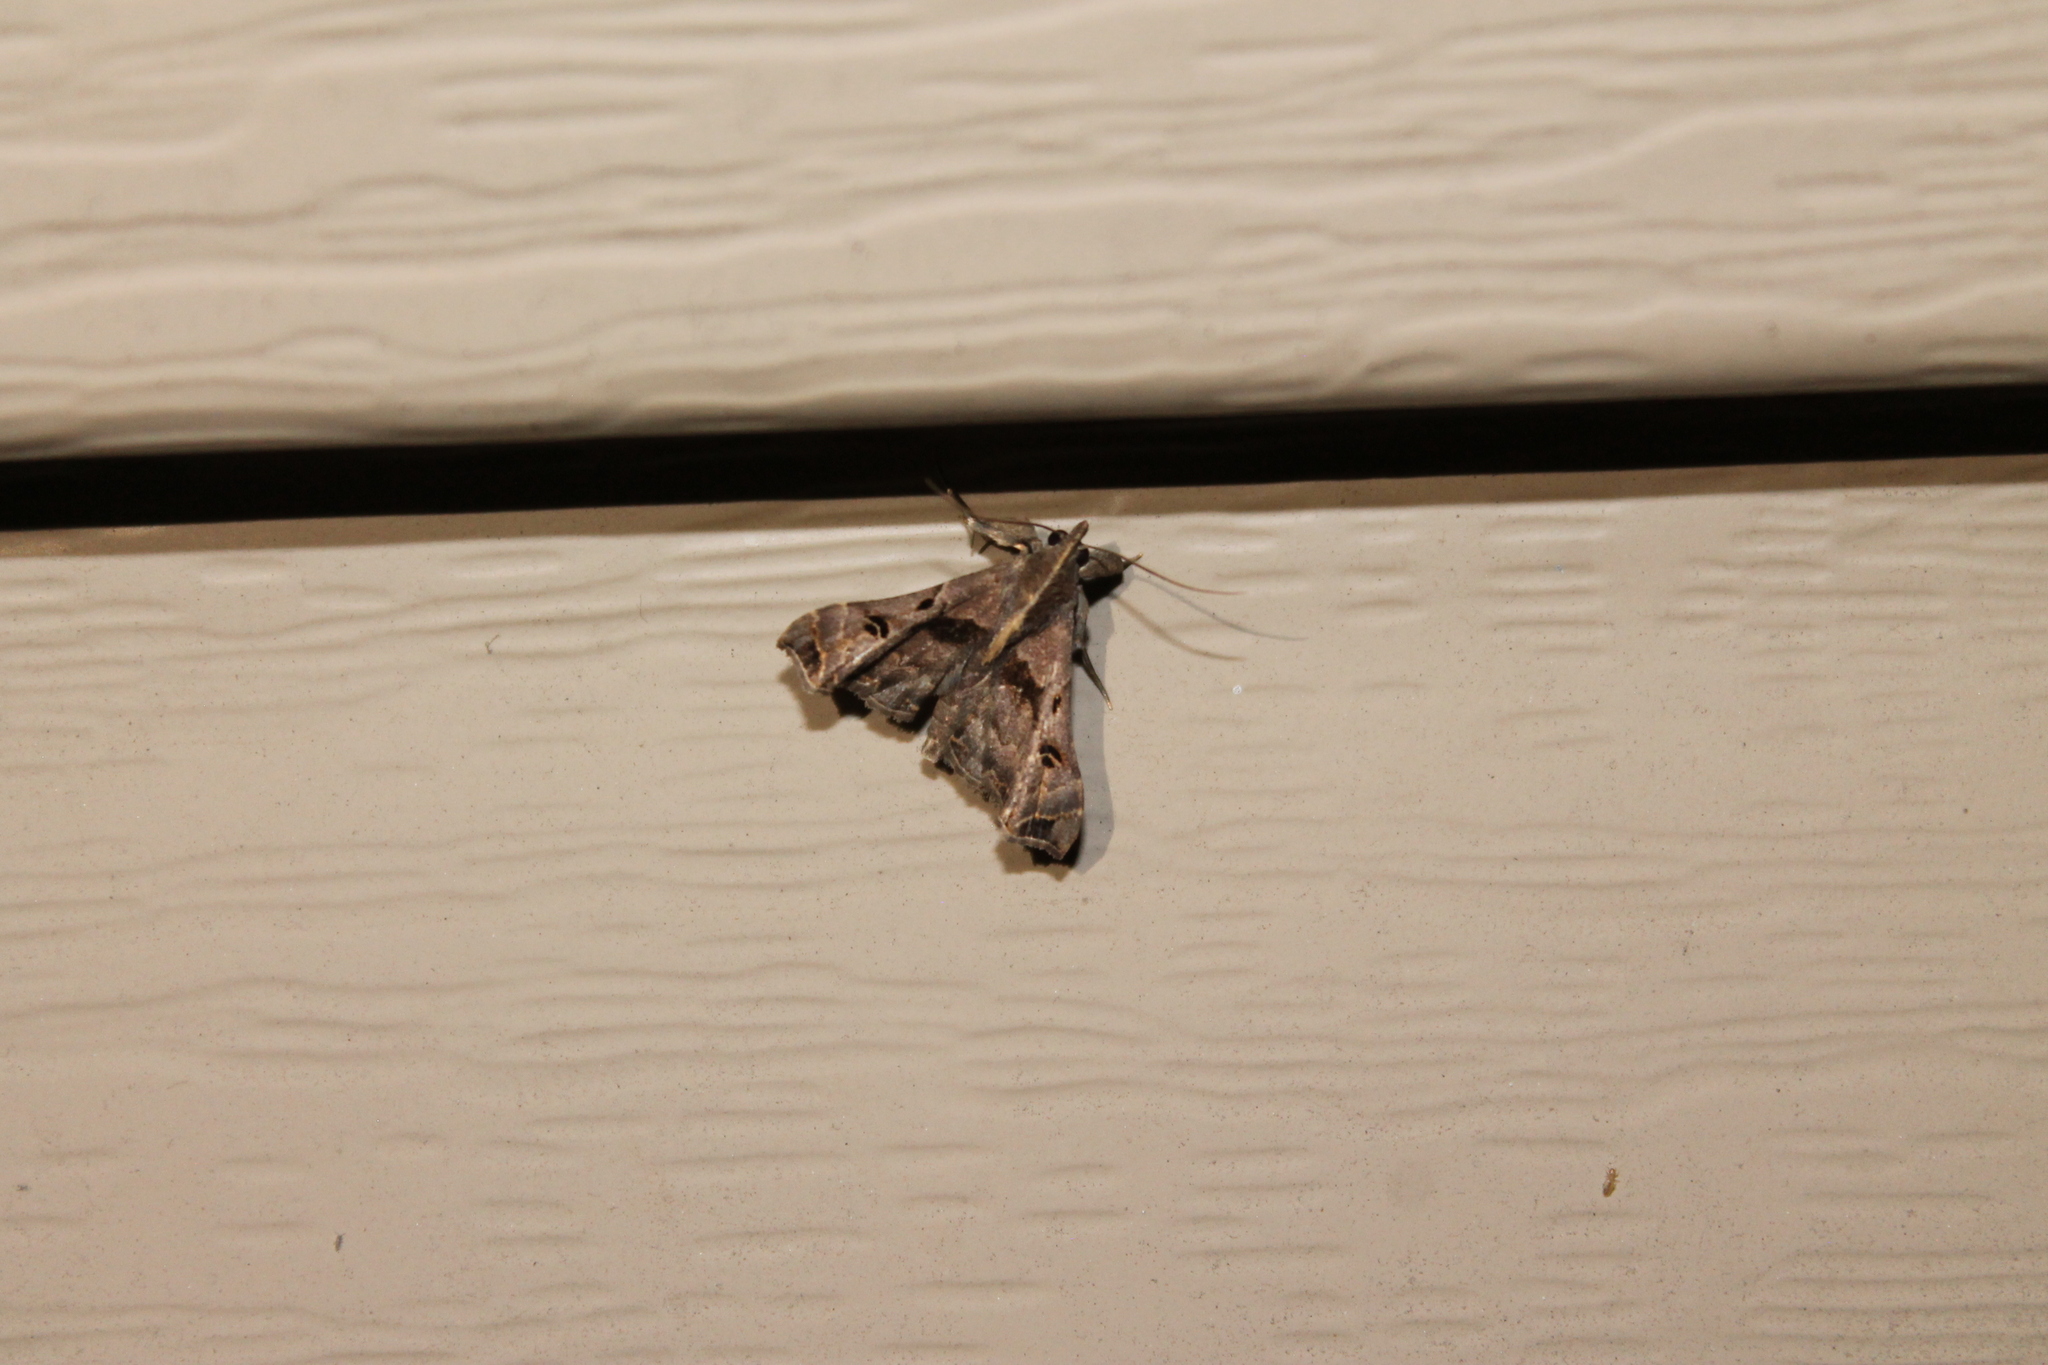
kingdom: Animalia
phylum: Arthropoda
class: Insecta
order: Lepidoptera
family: Erebidae
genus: Palthis
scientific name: Palthis asopialis
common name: Faint-spotted palthis moth
